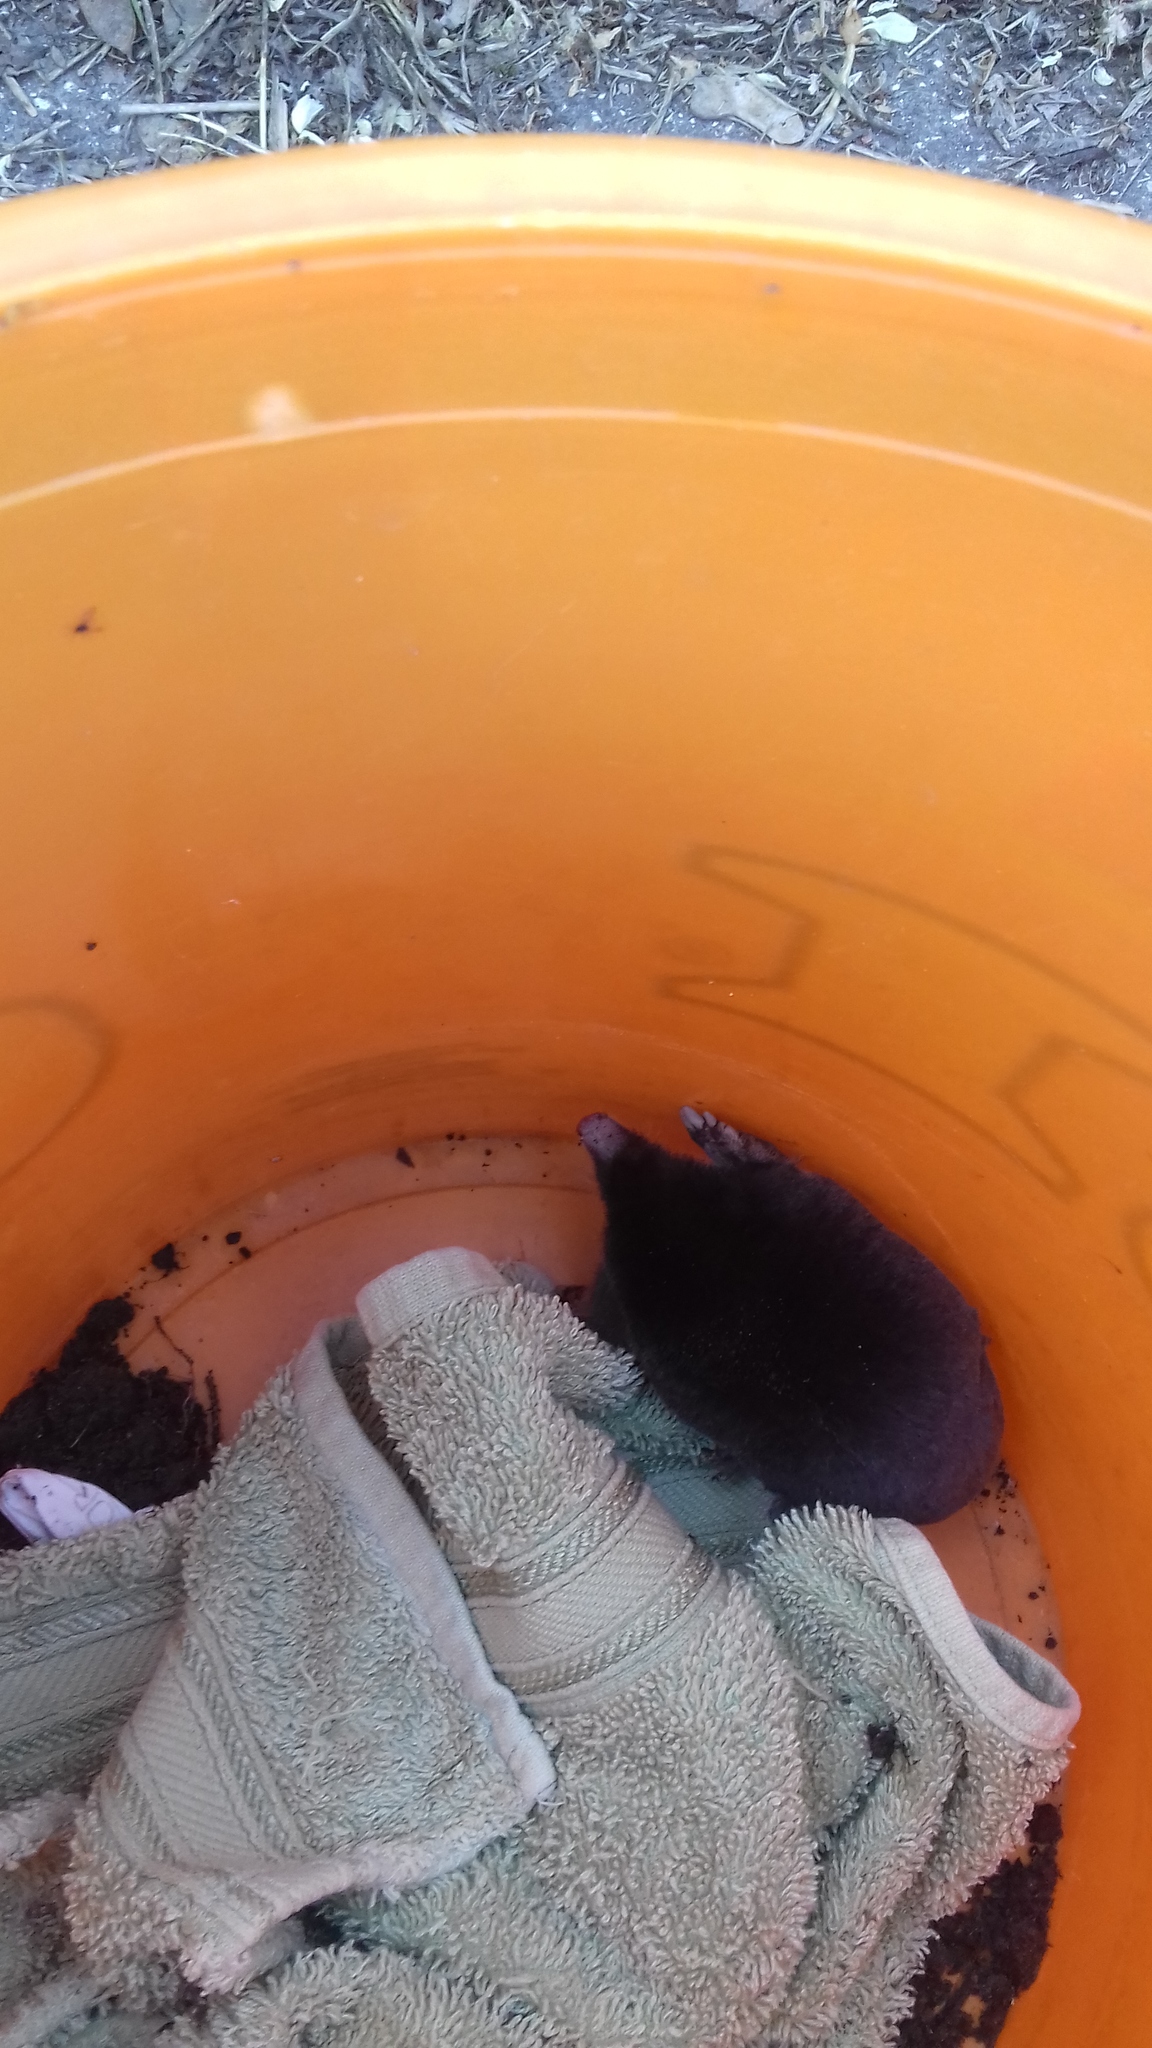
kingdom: Animalia
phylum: Chordata
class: Mammalia
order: Soricomorpha
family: Talpidae
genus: Talpa
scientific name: Talpa europaea
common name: European mole
